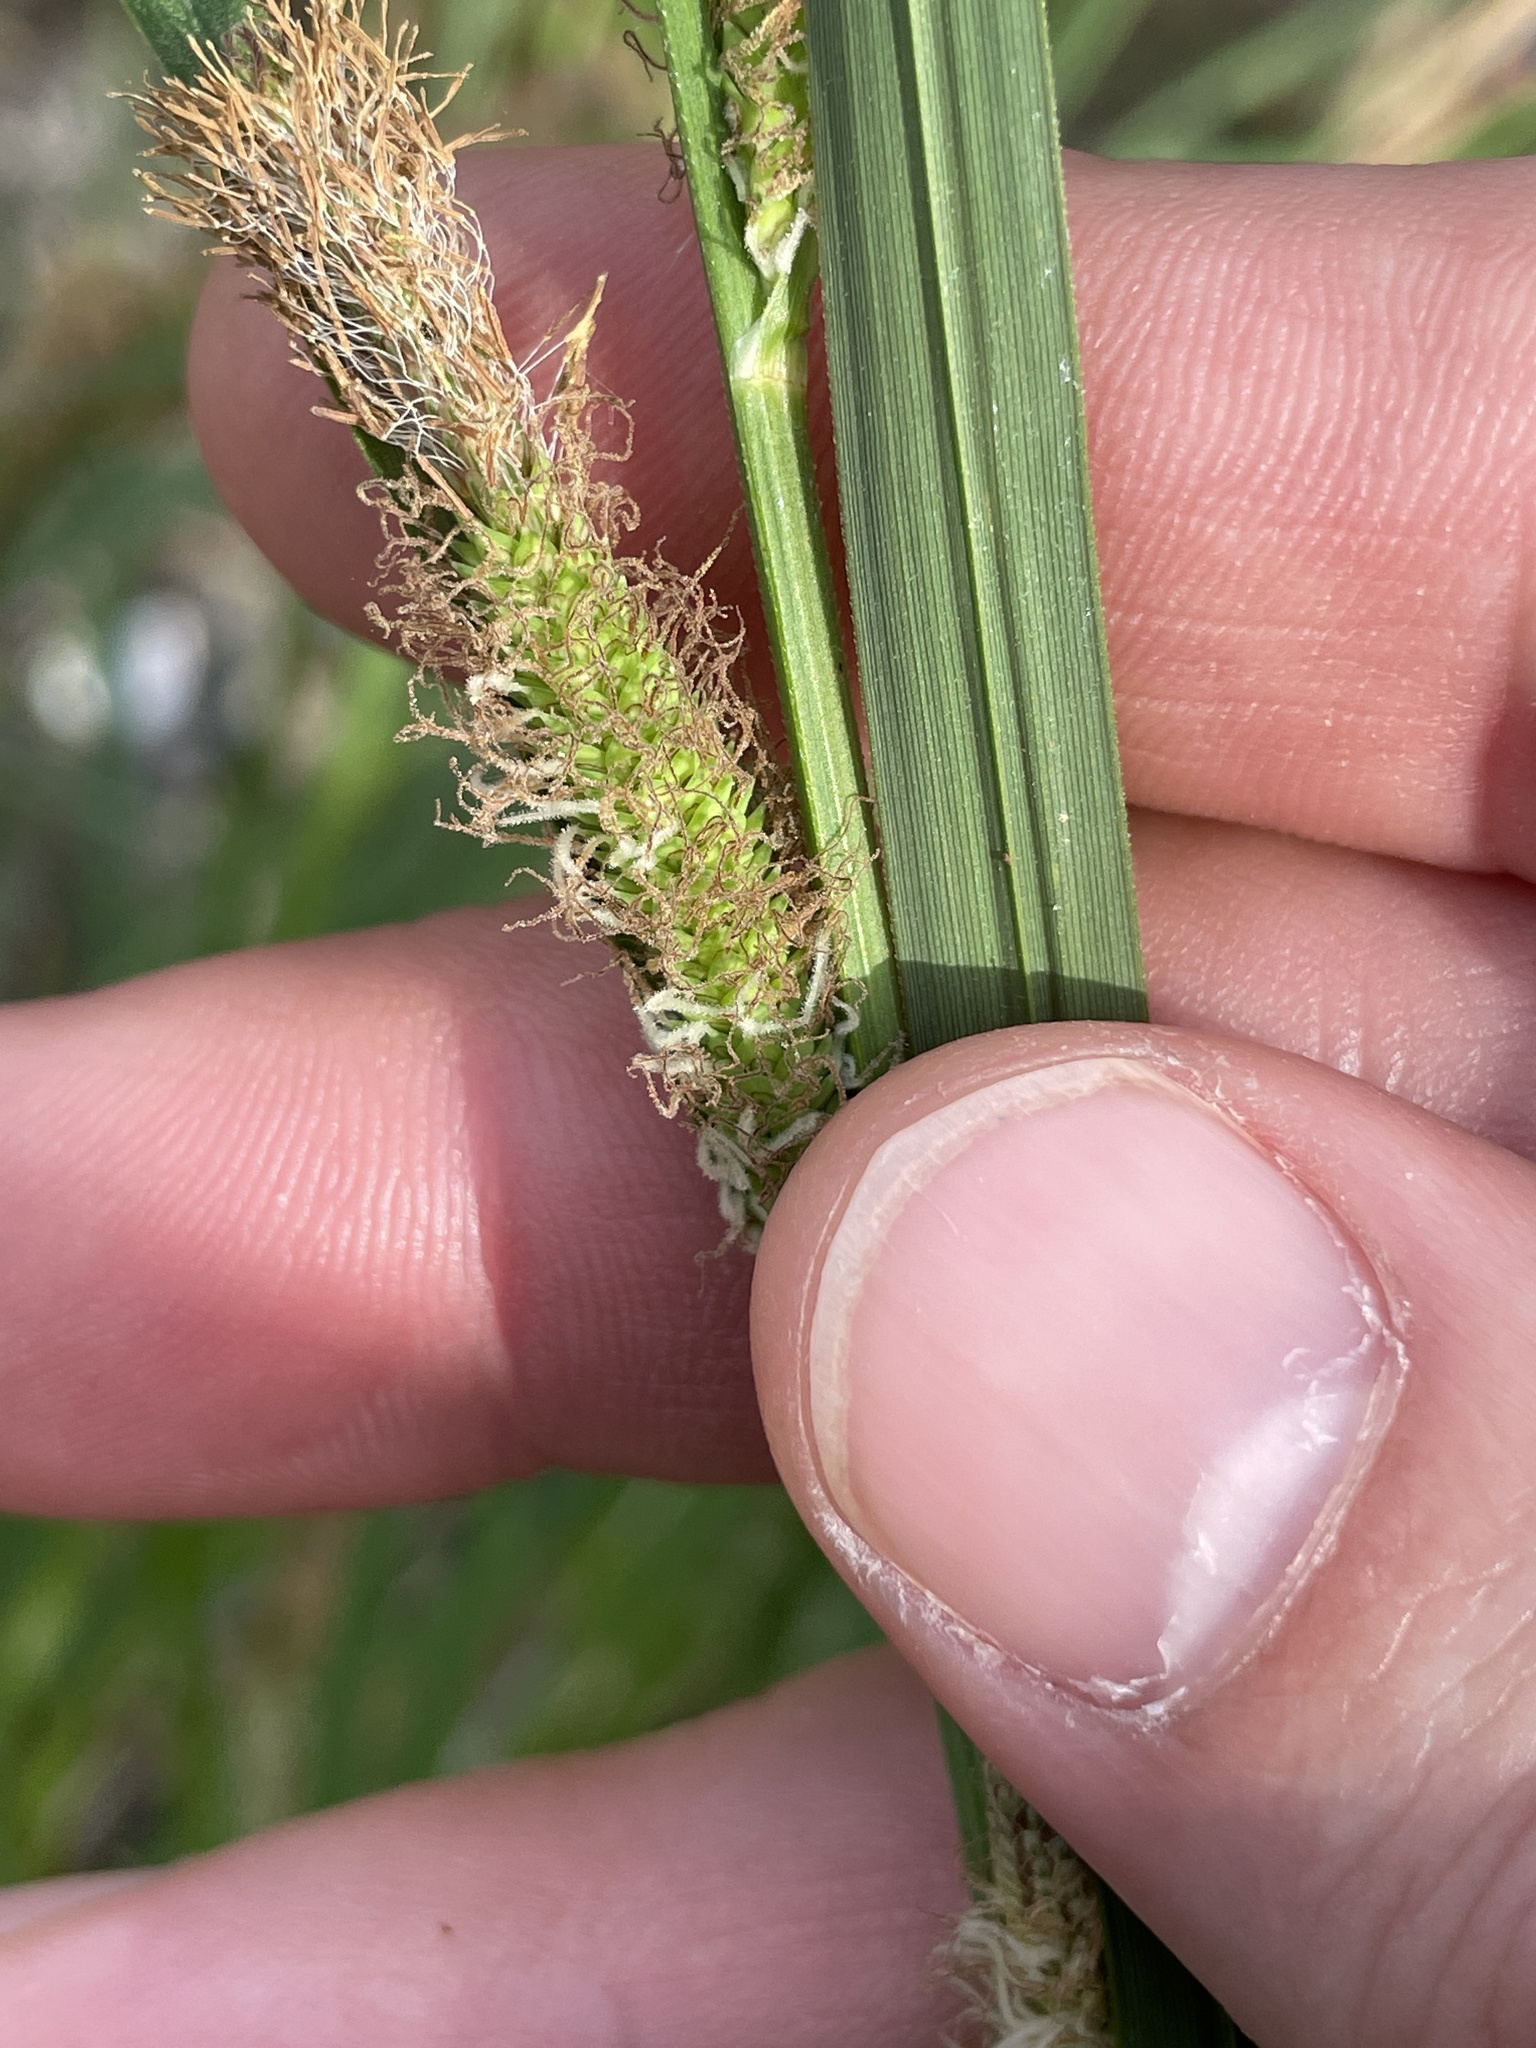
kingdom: Plantae
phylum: Tracheophyta
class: Liliopsida
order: Poales
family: Cyperaceae
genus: Carex
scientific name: Carex emoryi
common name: Emory's sedge
